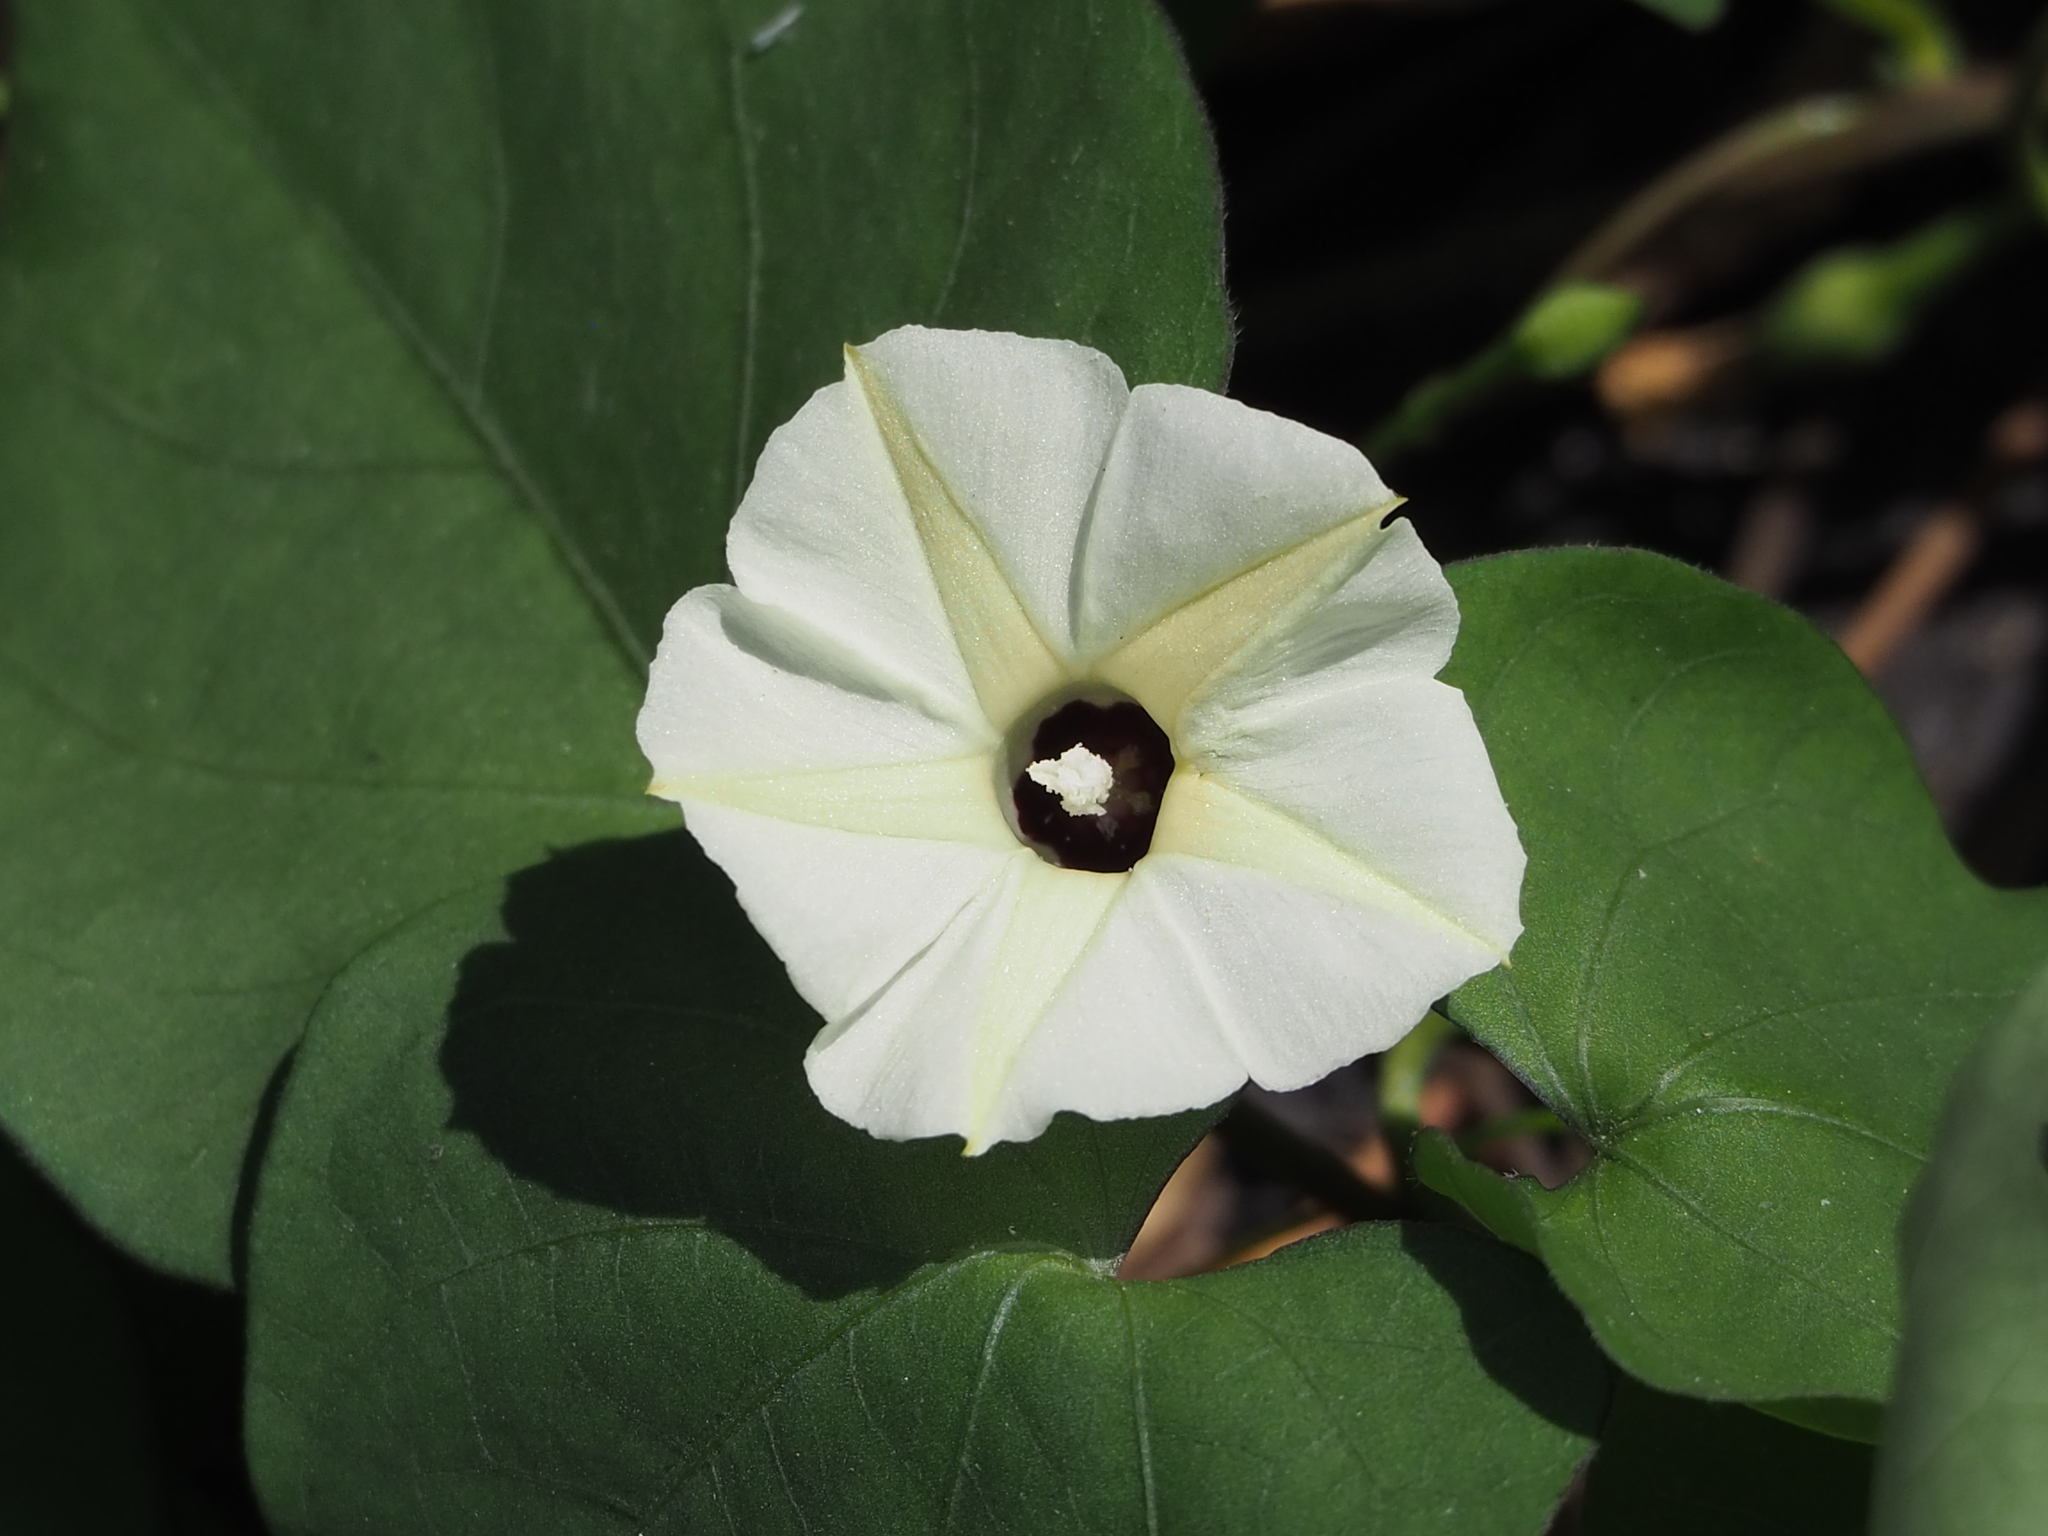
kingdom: Plantae
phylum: Tracheophyta
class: Magnoliopsida
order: Solanales
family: Convolvulaceae
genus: Ipomoea
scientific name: Ipomoea obscura
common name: Obscure morning-glory
